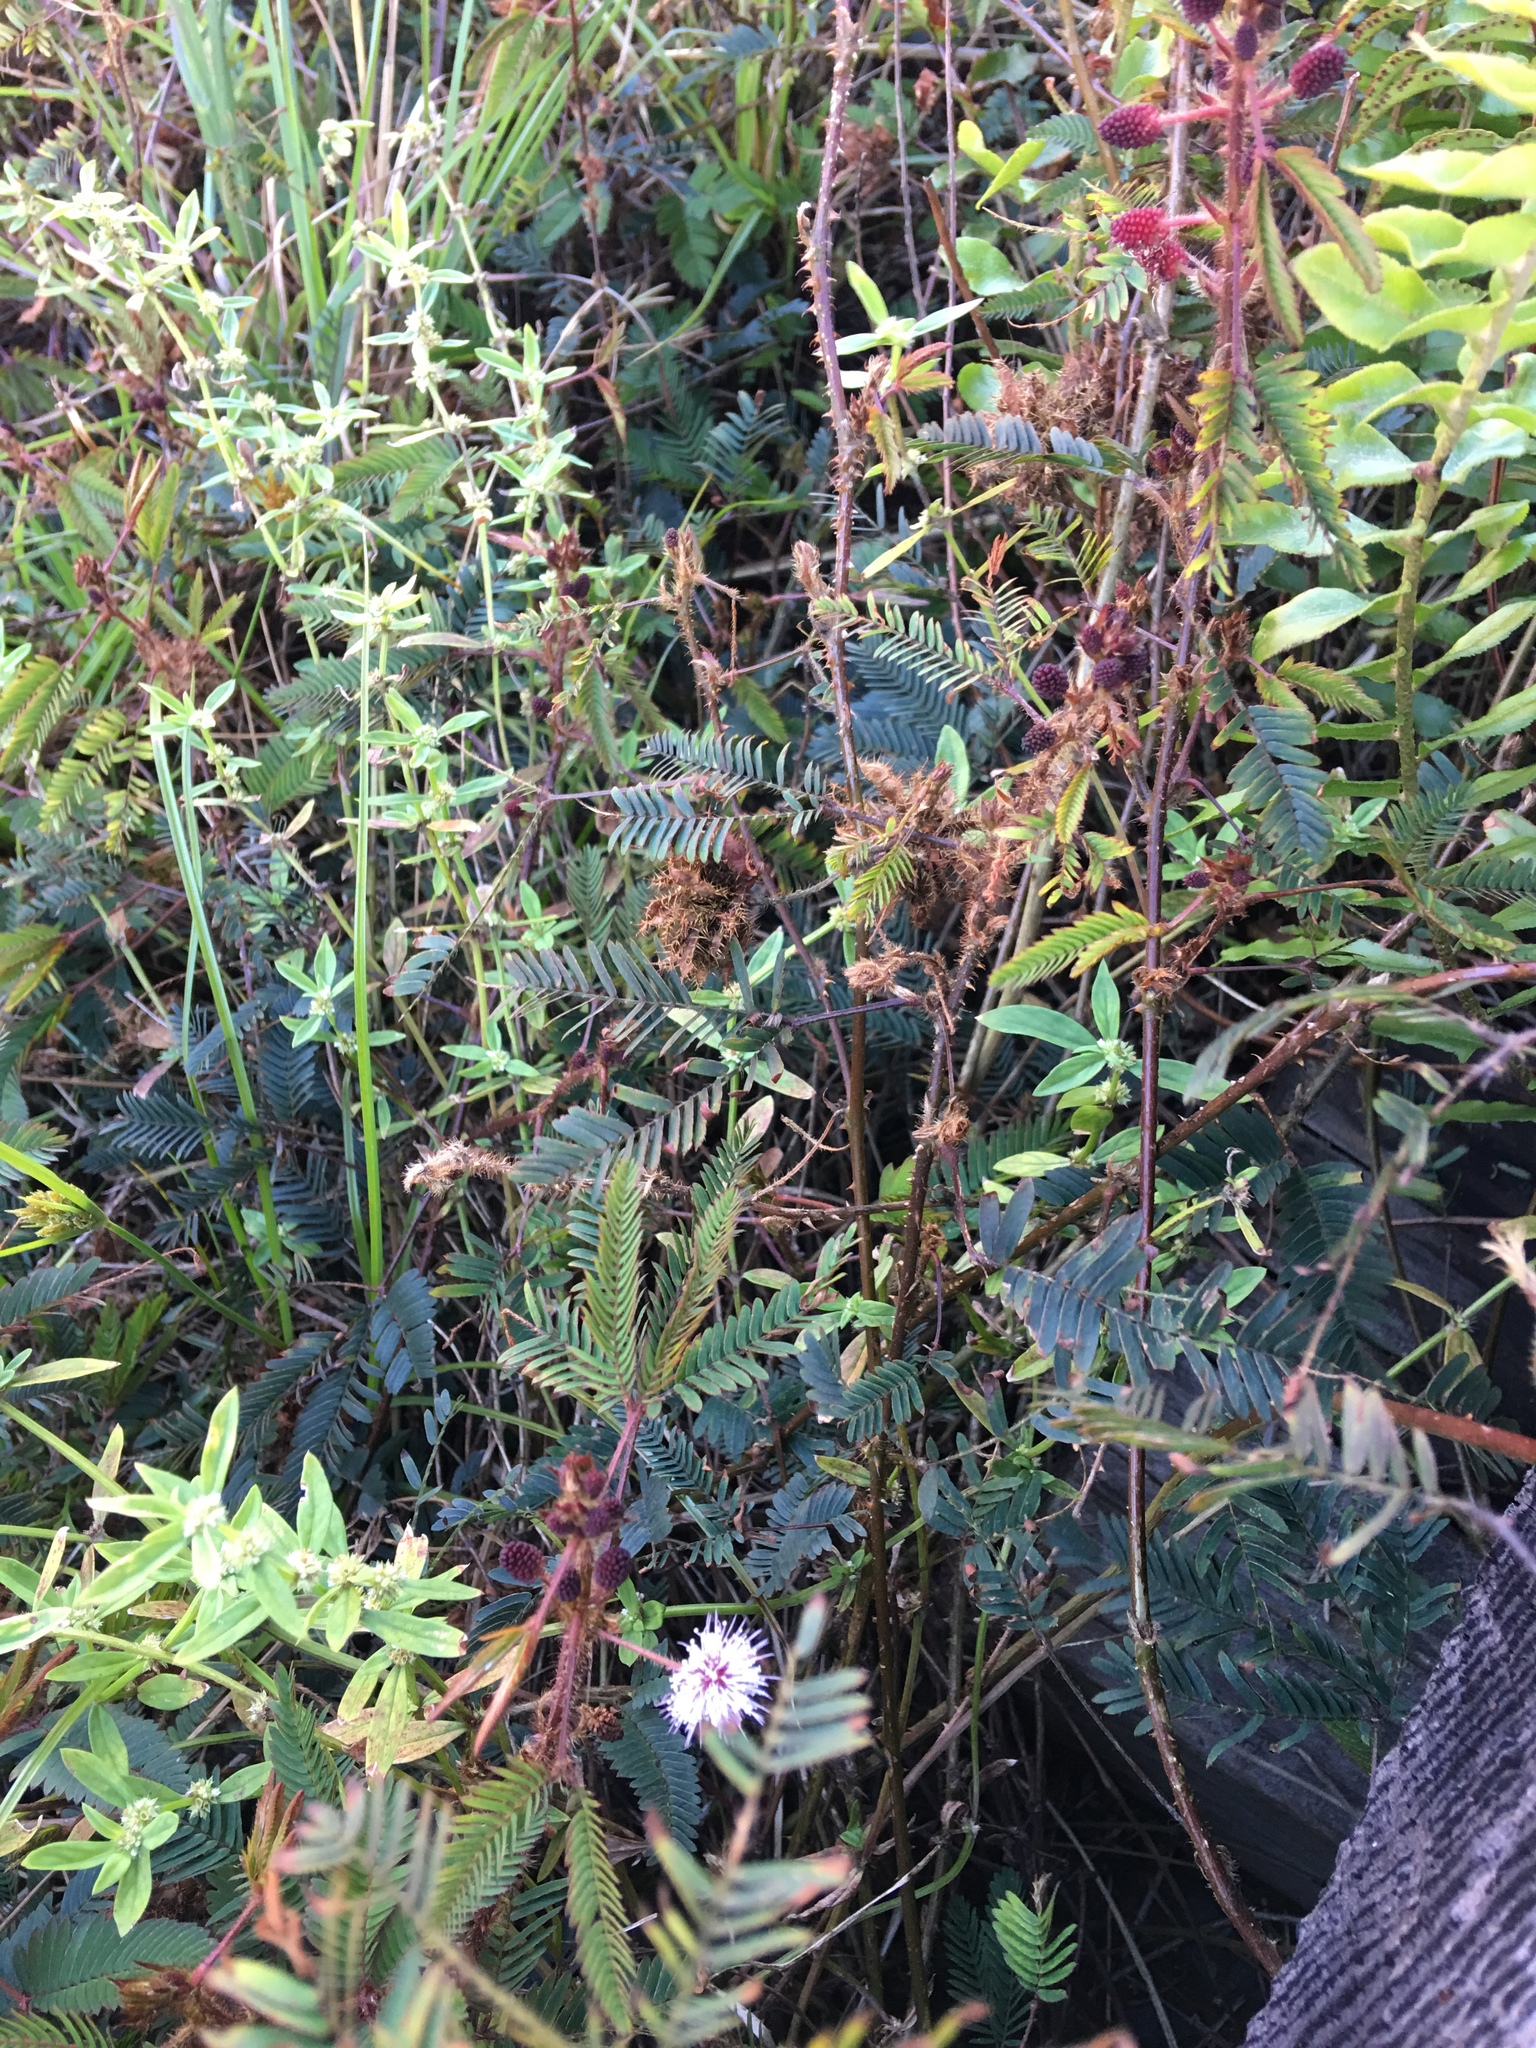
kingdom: Plantae
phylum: Tracheophyta
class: Magnoliopsida
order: Fabales
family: Fabaceae
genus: Mimosa
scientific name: Mimosa pudica
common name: Sensitive plant
